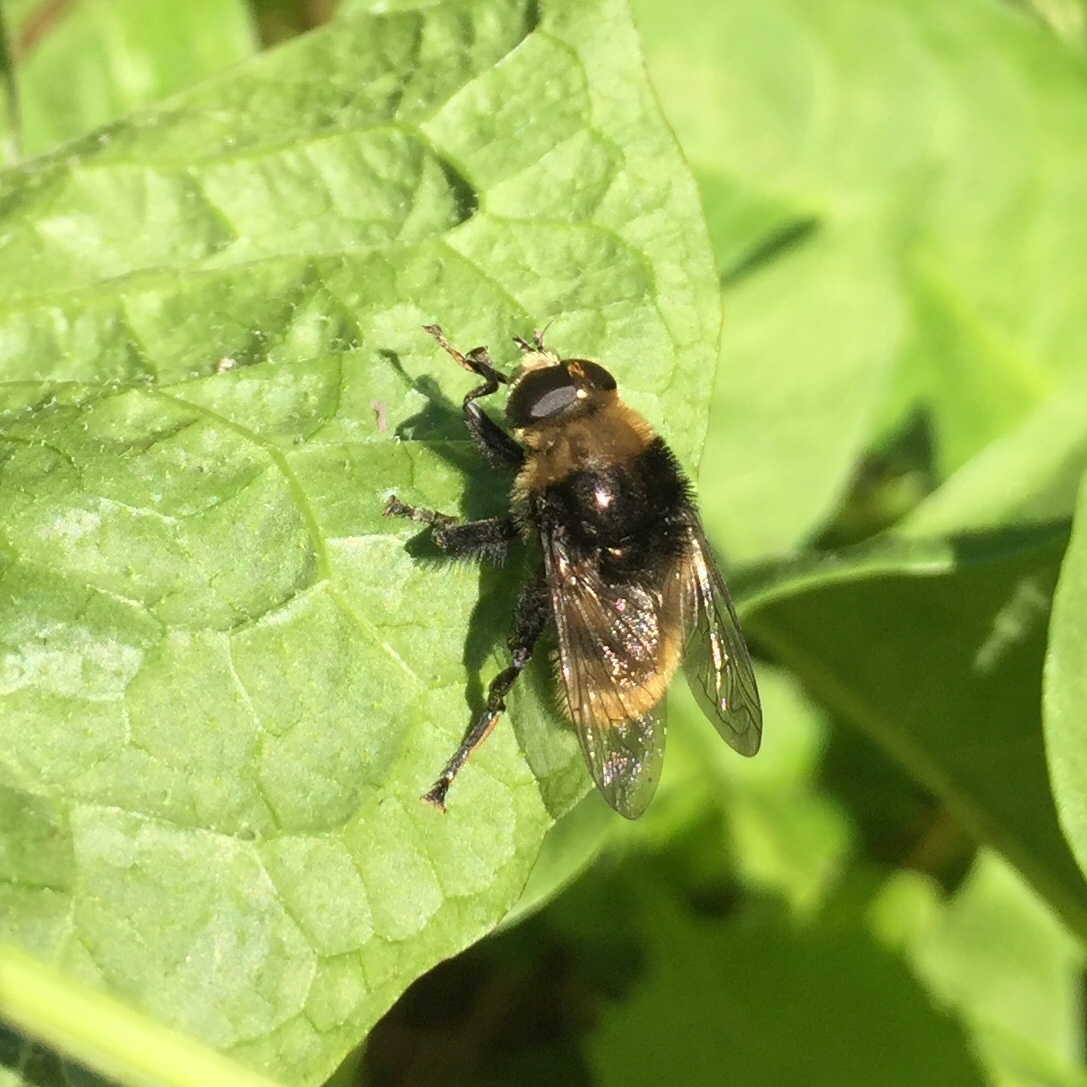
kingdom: Animalia
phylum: Arthropoda
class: Insecta
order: Diptera
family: Syrphidae
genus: Merodon
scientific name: Merodon equestris
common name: Greater bulb-fly
